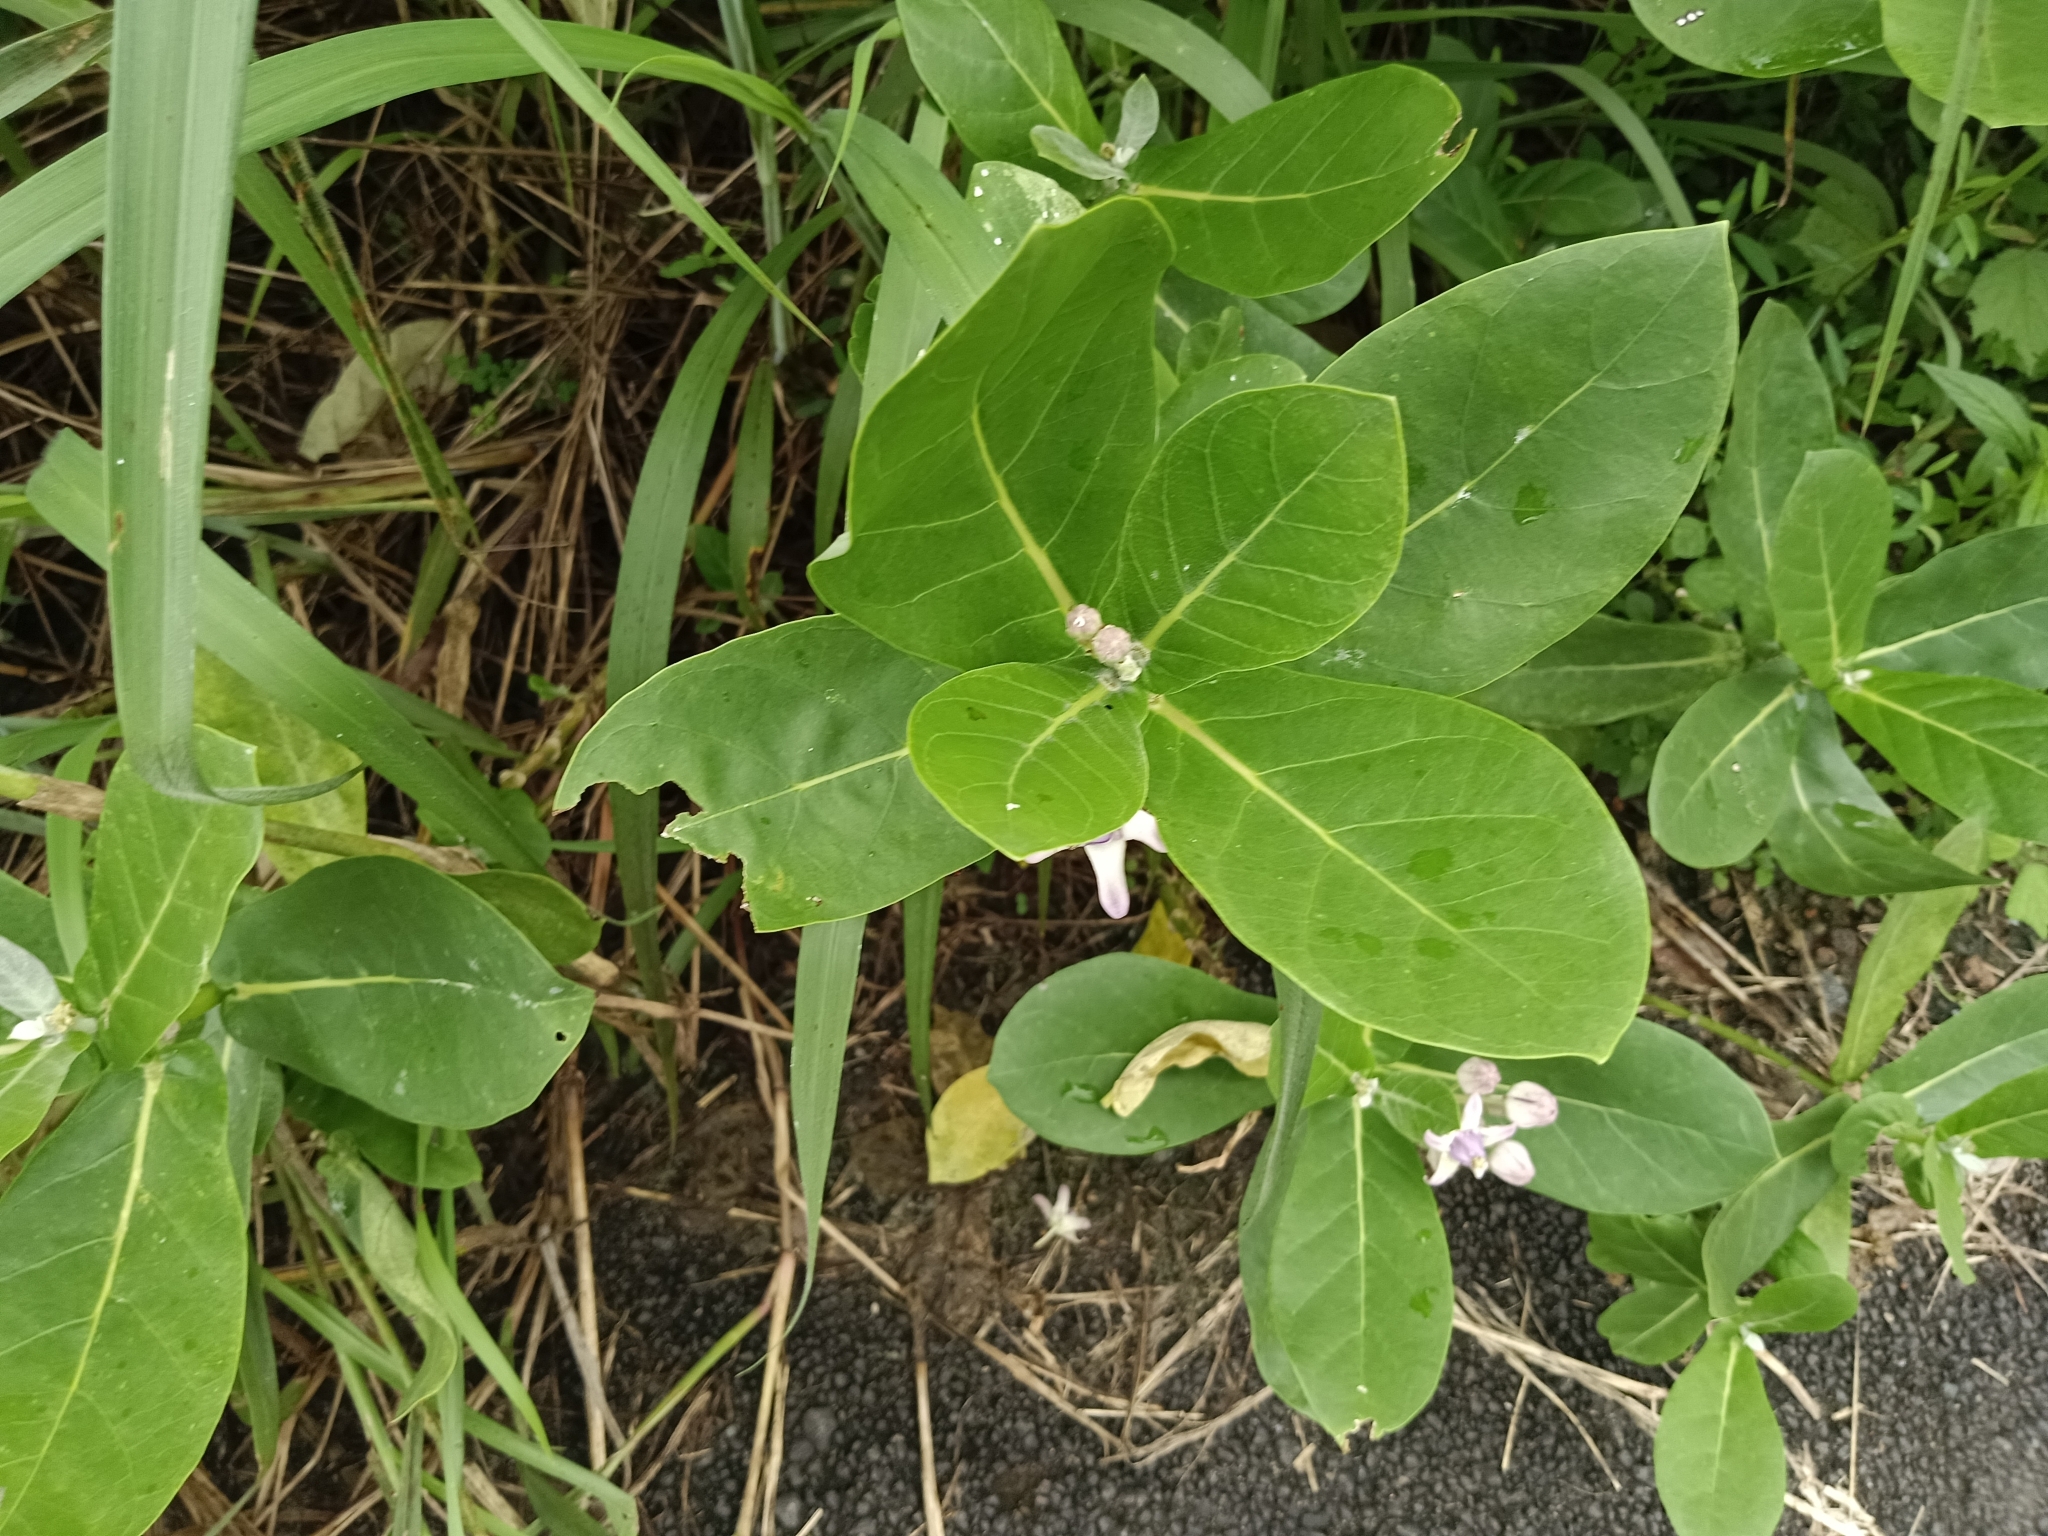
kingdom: Plantae
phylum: Tracheophyta
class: Magnoliopsida
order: Gentianales
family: Apocynaceae
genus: Calotropis
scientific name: Calotropis gigantea
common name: Crown flower
